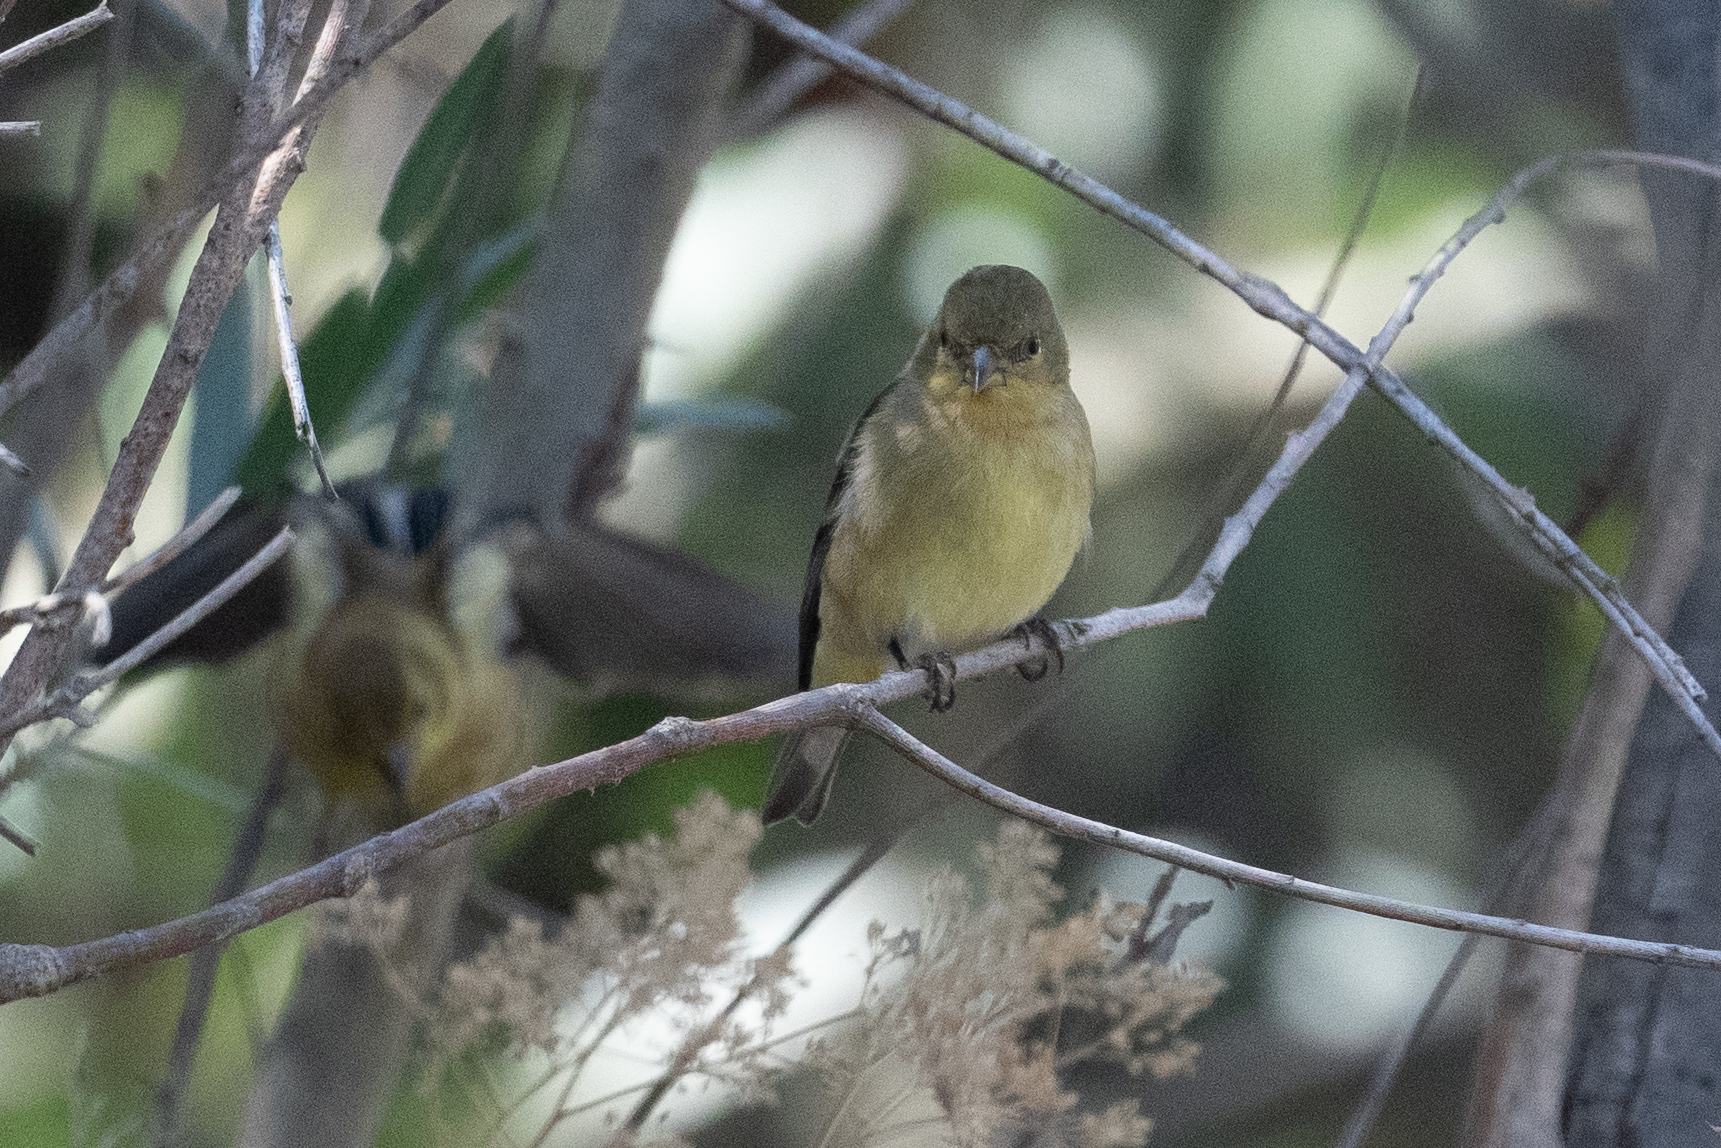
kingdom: Animalia
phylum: Chordata
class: Aves
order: Passeriformes
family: Fringillidae
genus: Spinus
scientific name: Spinus psaltria
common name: Lesser goldfinch
